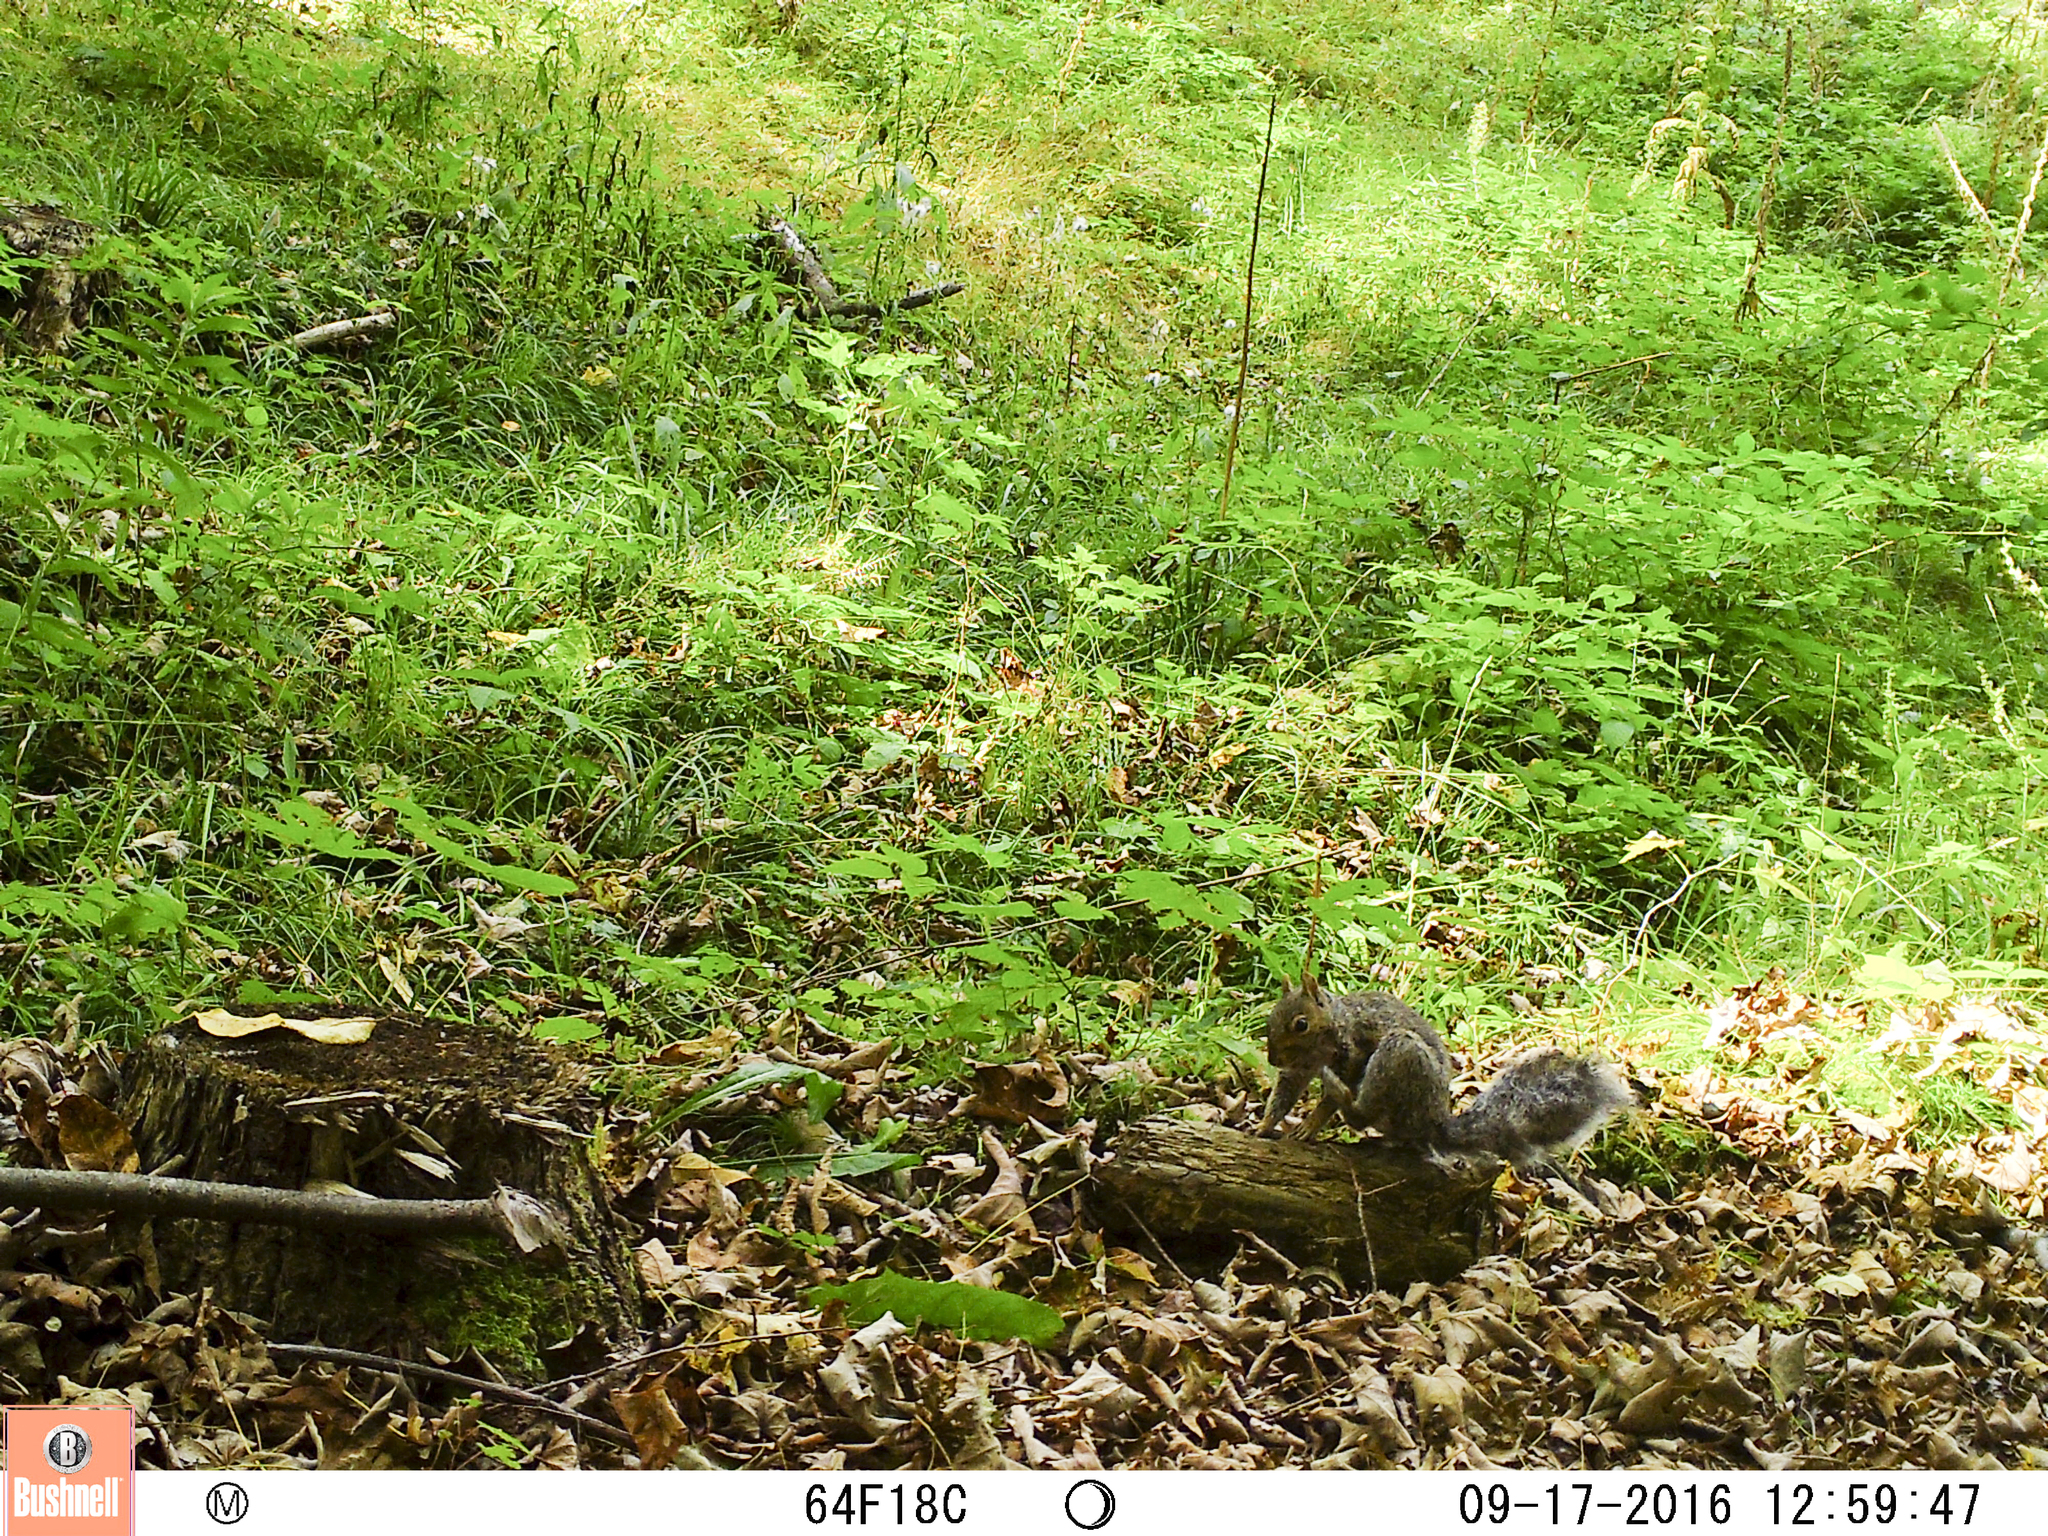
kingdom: Animalia
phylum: Chordata
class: Mammalia
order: Rodentia
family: Sciuridae
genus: Sciurus
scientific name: Sciurus carolinensis
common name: Eastern gray squirrel
